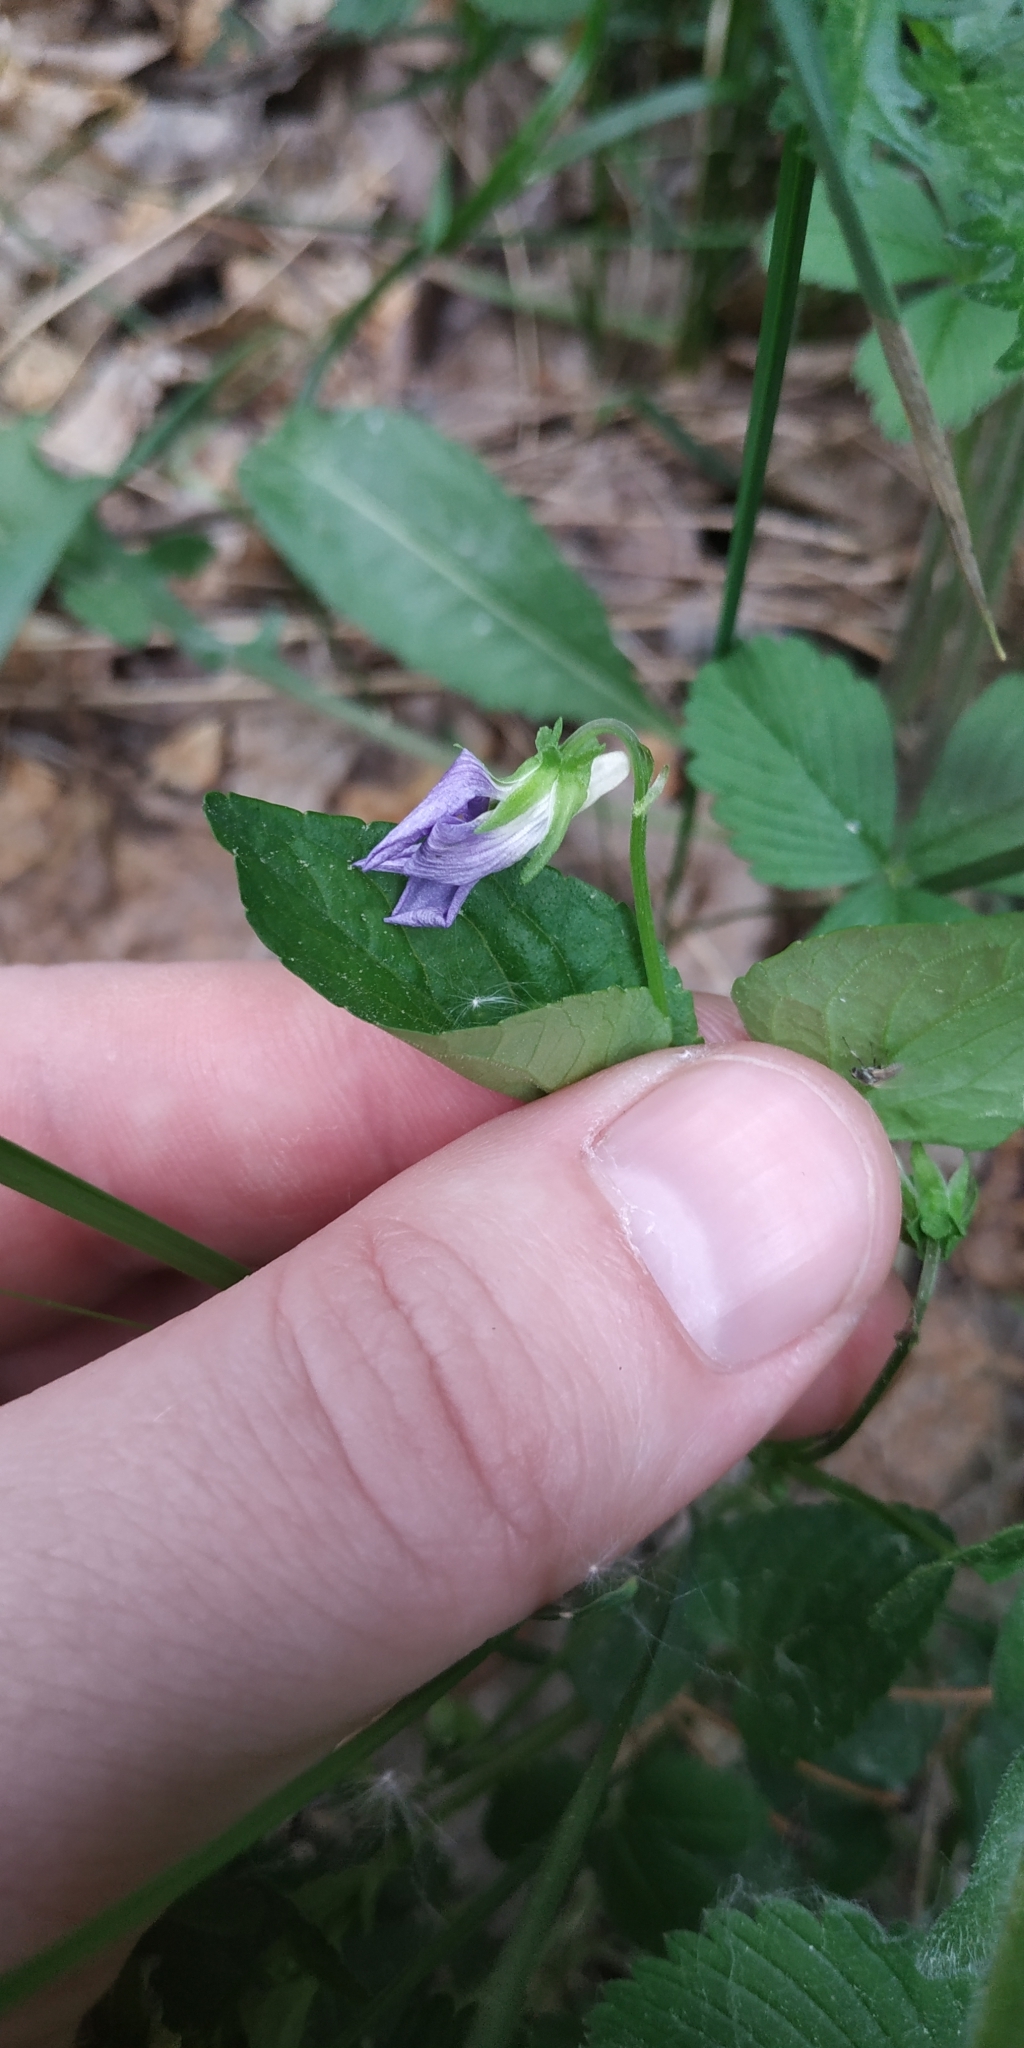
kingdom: Plantae
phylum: Tracheophyta
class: Magnoliopsida
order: Malpighiales
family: Violaceae
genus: Viola
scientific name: Viola
